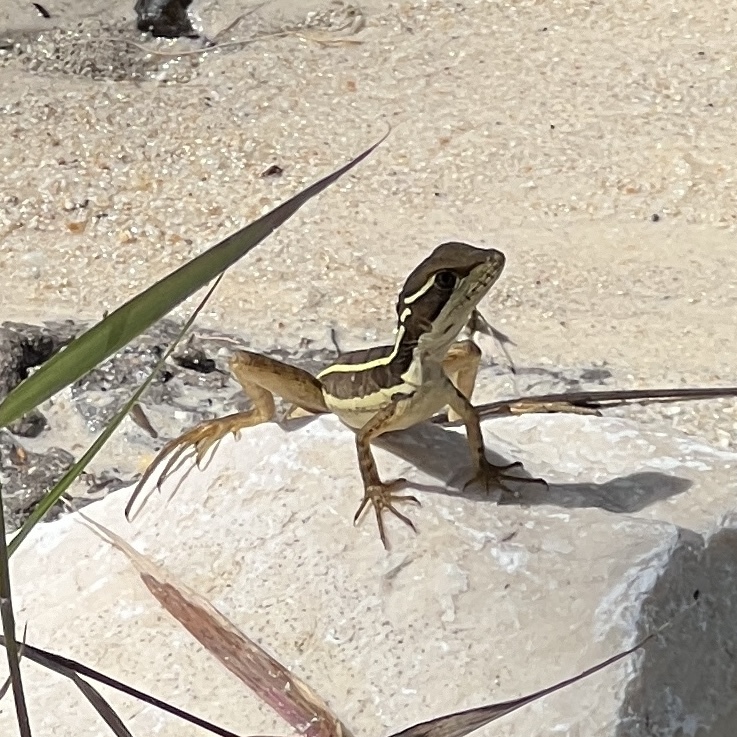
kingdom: Animalia
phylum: Chordata
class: Squamata
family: Corytophanidae
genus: Basiliscus
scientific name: Basiliscus vittatus
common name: Brown basilisk
